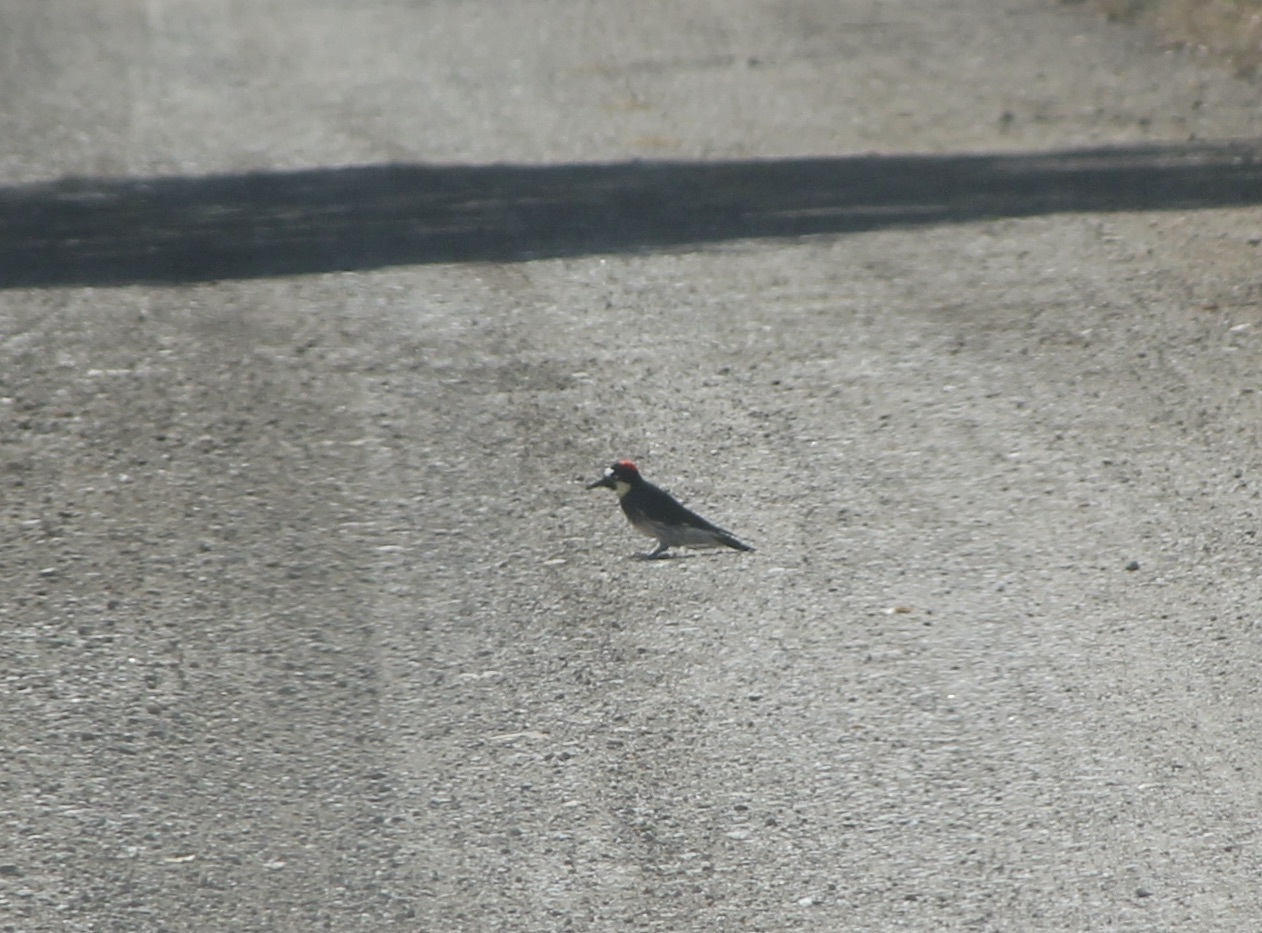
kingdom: Animalia
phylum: Chordata
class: Aves
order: Piciformes
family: Picidae
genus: Melanerpes
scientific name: Melanerpes formicivorus
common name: Acorn woodpecker
